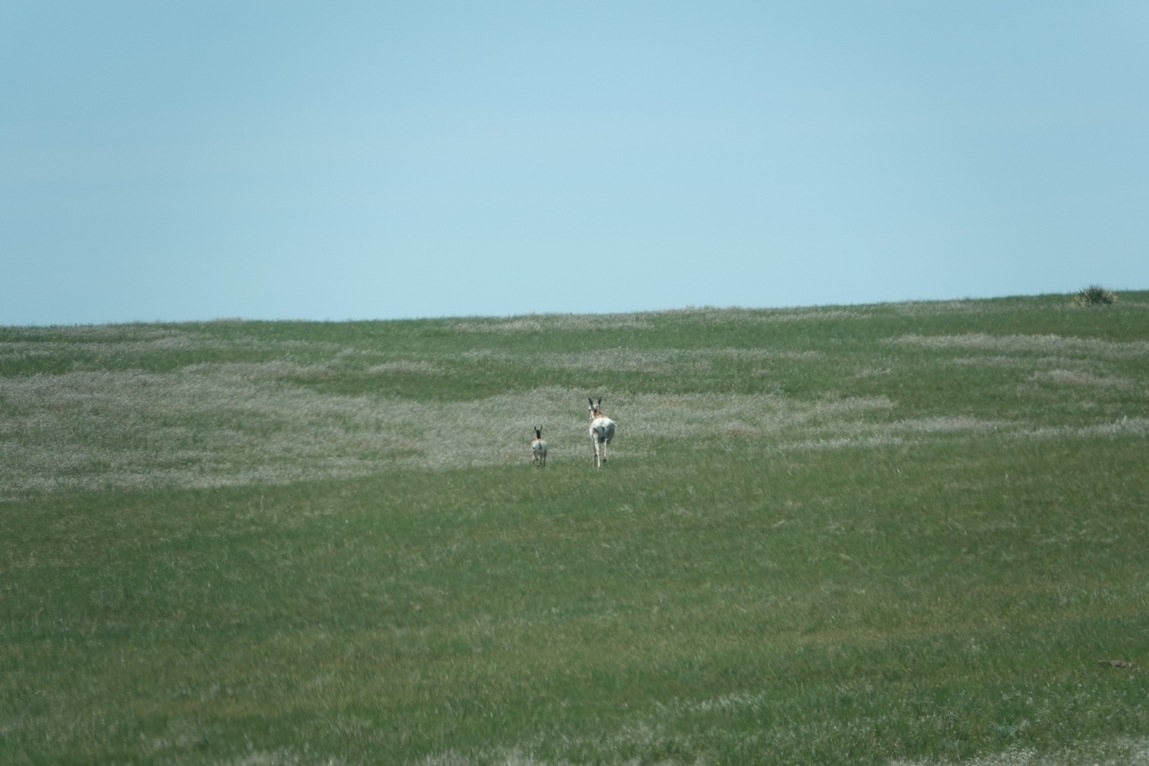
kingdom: Animalia
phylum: Chordata
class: Mammalia
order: Artiodactyla
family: Antilocapridae
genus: Antilocapra
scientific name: Antilocapra americana
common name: Pronghorn
